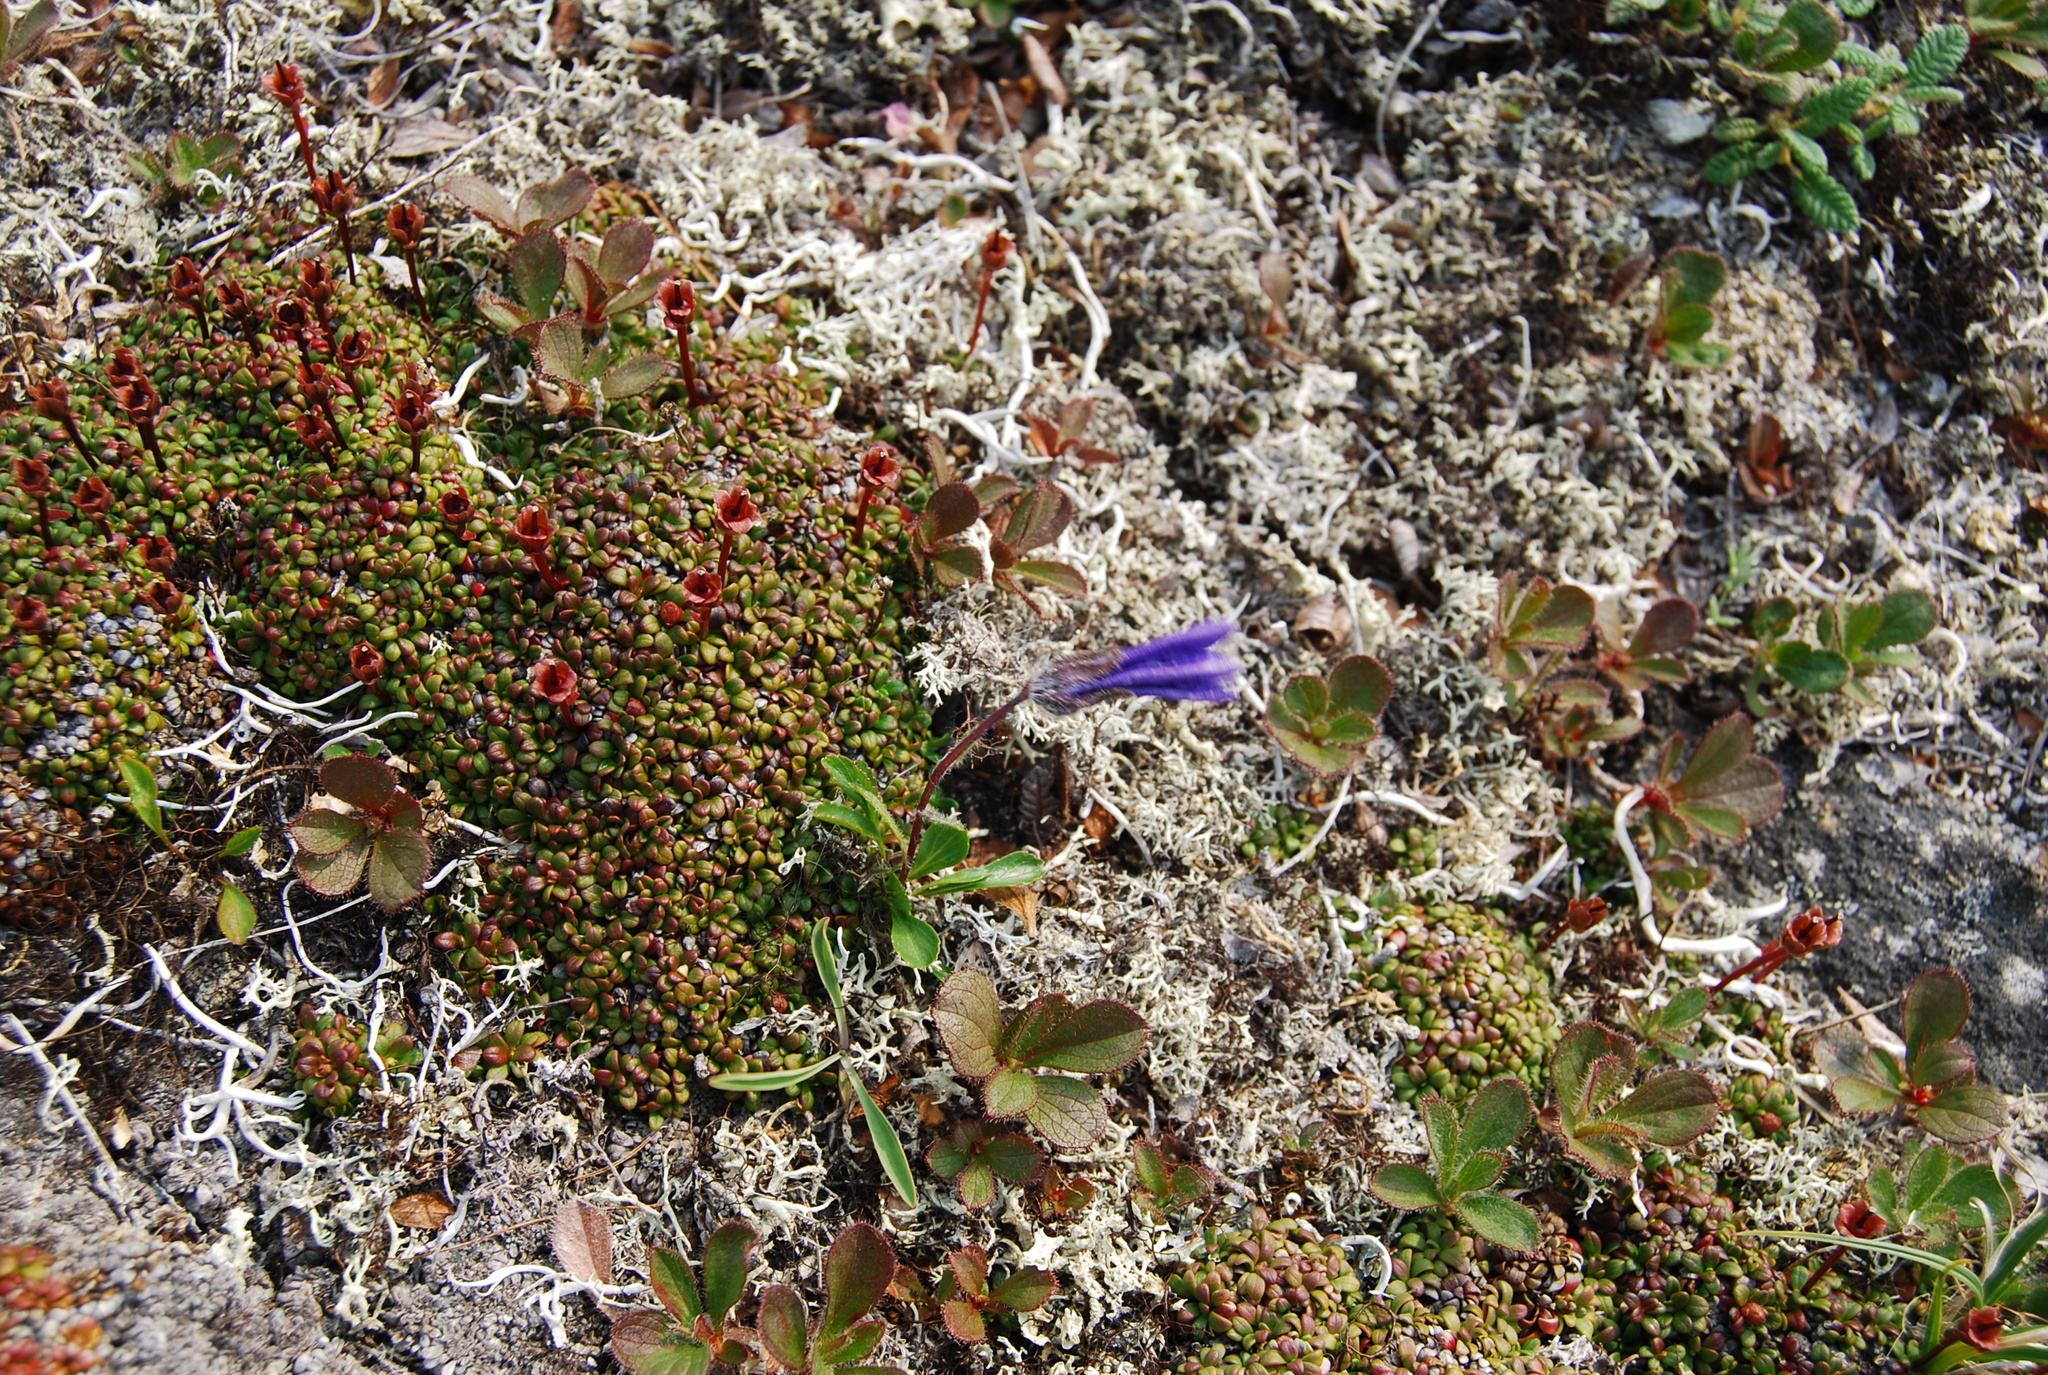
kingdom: Plantae
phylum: Tracheophyta
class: Magnoliopsida
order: Asterales
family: Campanulaceae
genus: Campanula
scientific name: Campanula dasyantha
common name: Hairyflower bellflower
